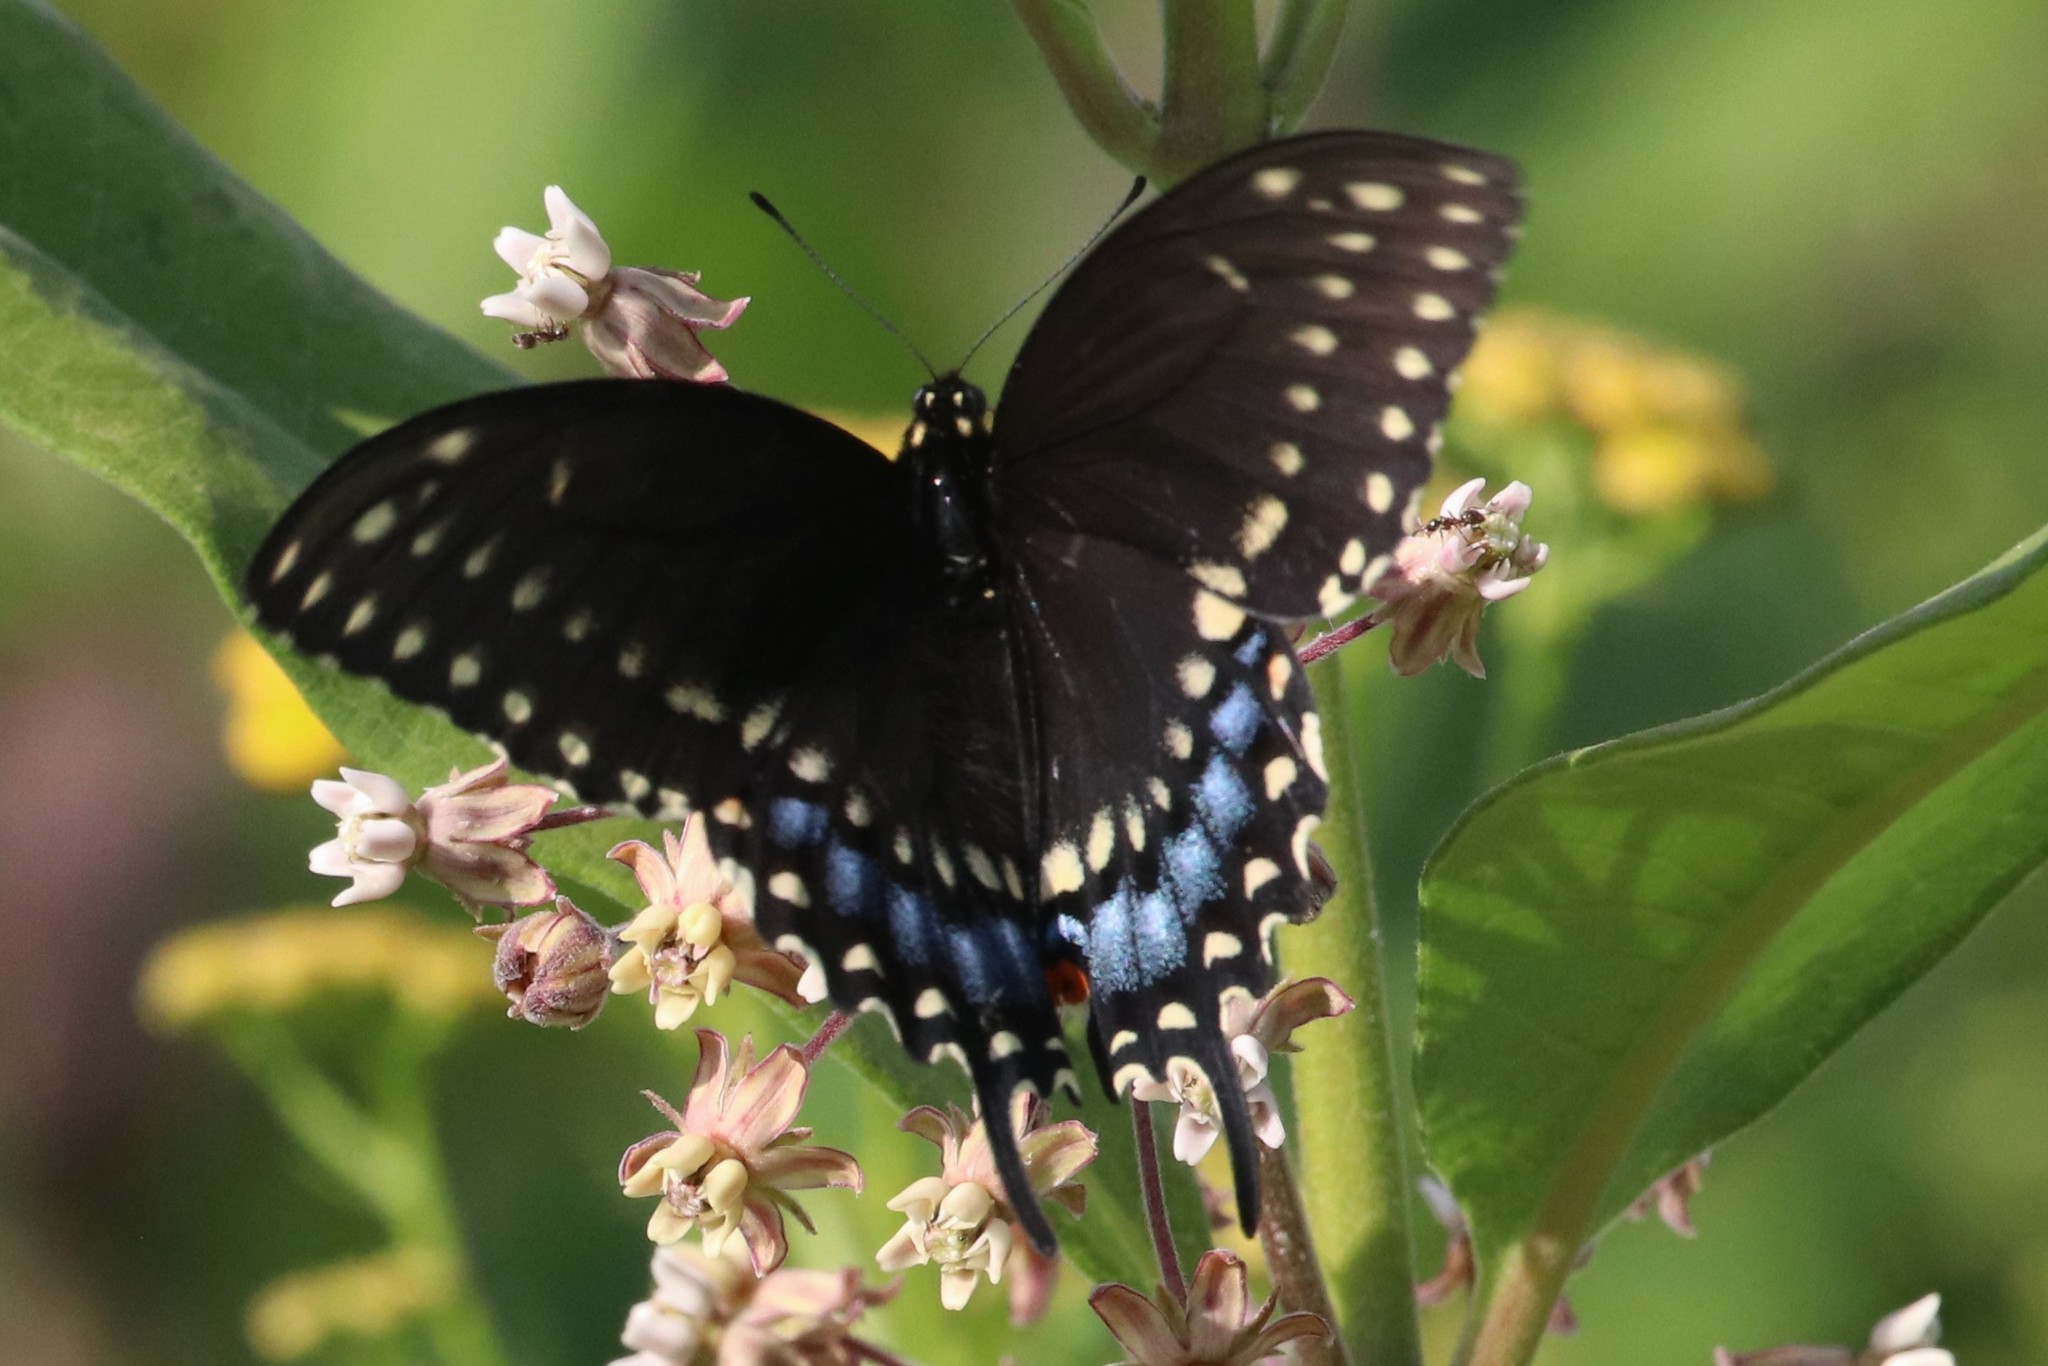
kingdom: Animalia
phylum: Arthropoda
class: Insecta
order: Lepidoptera
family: Papilionidae
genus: Papilio
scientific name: Papilio polyxenes
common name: Black swallowtail
